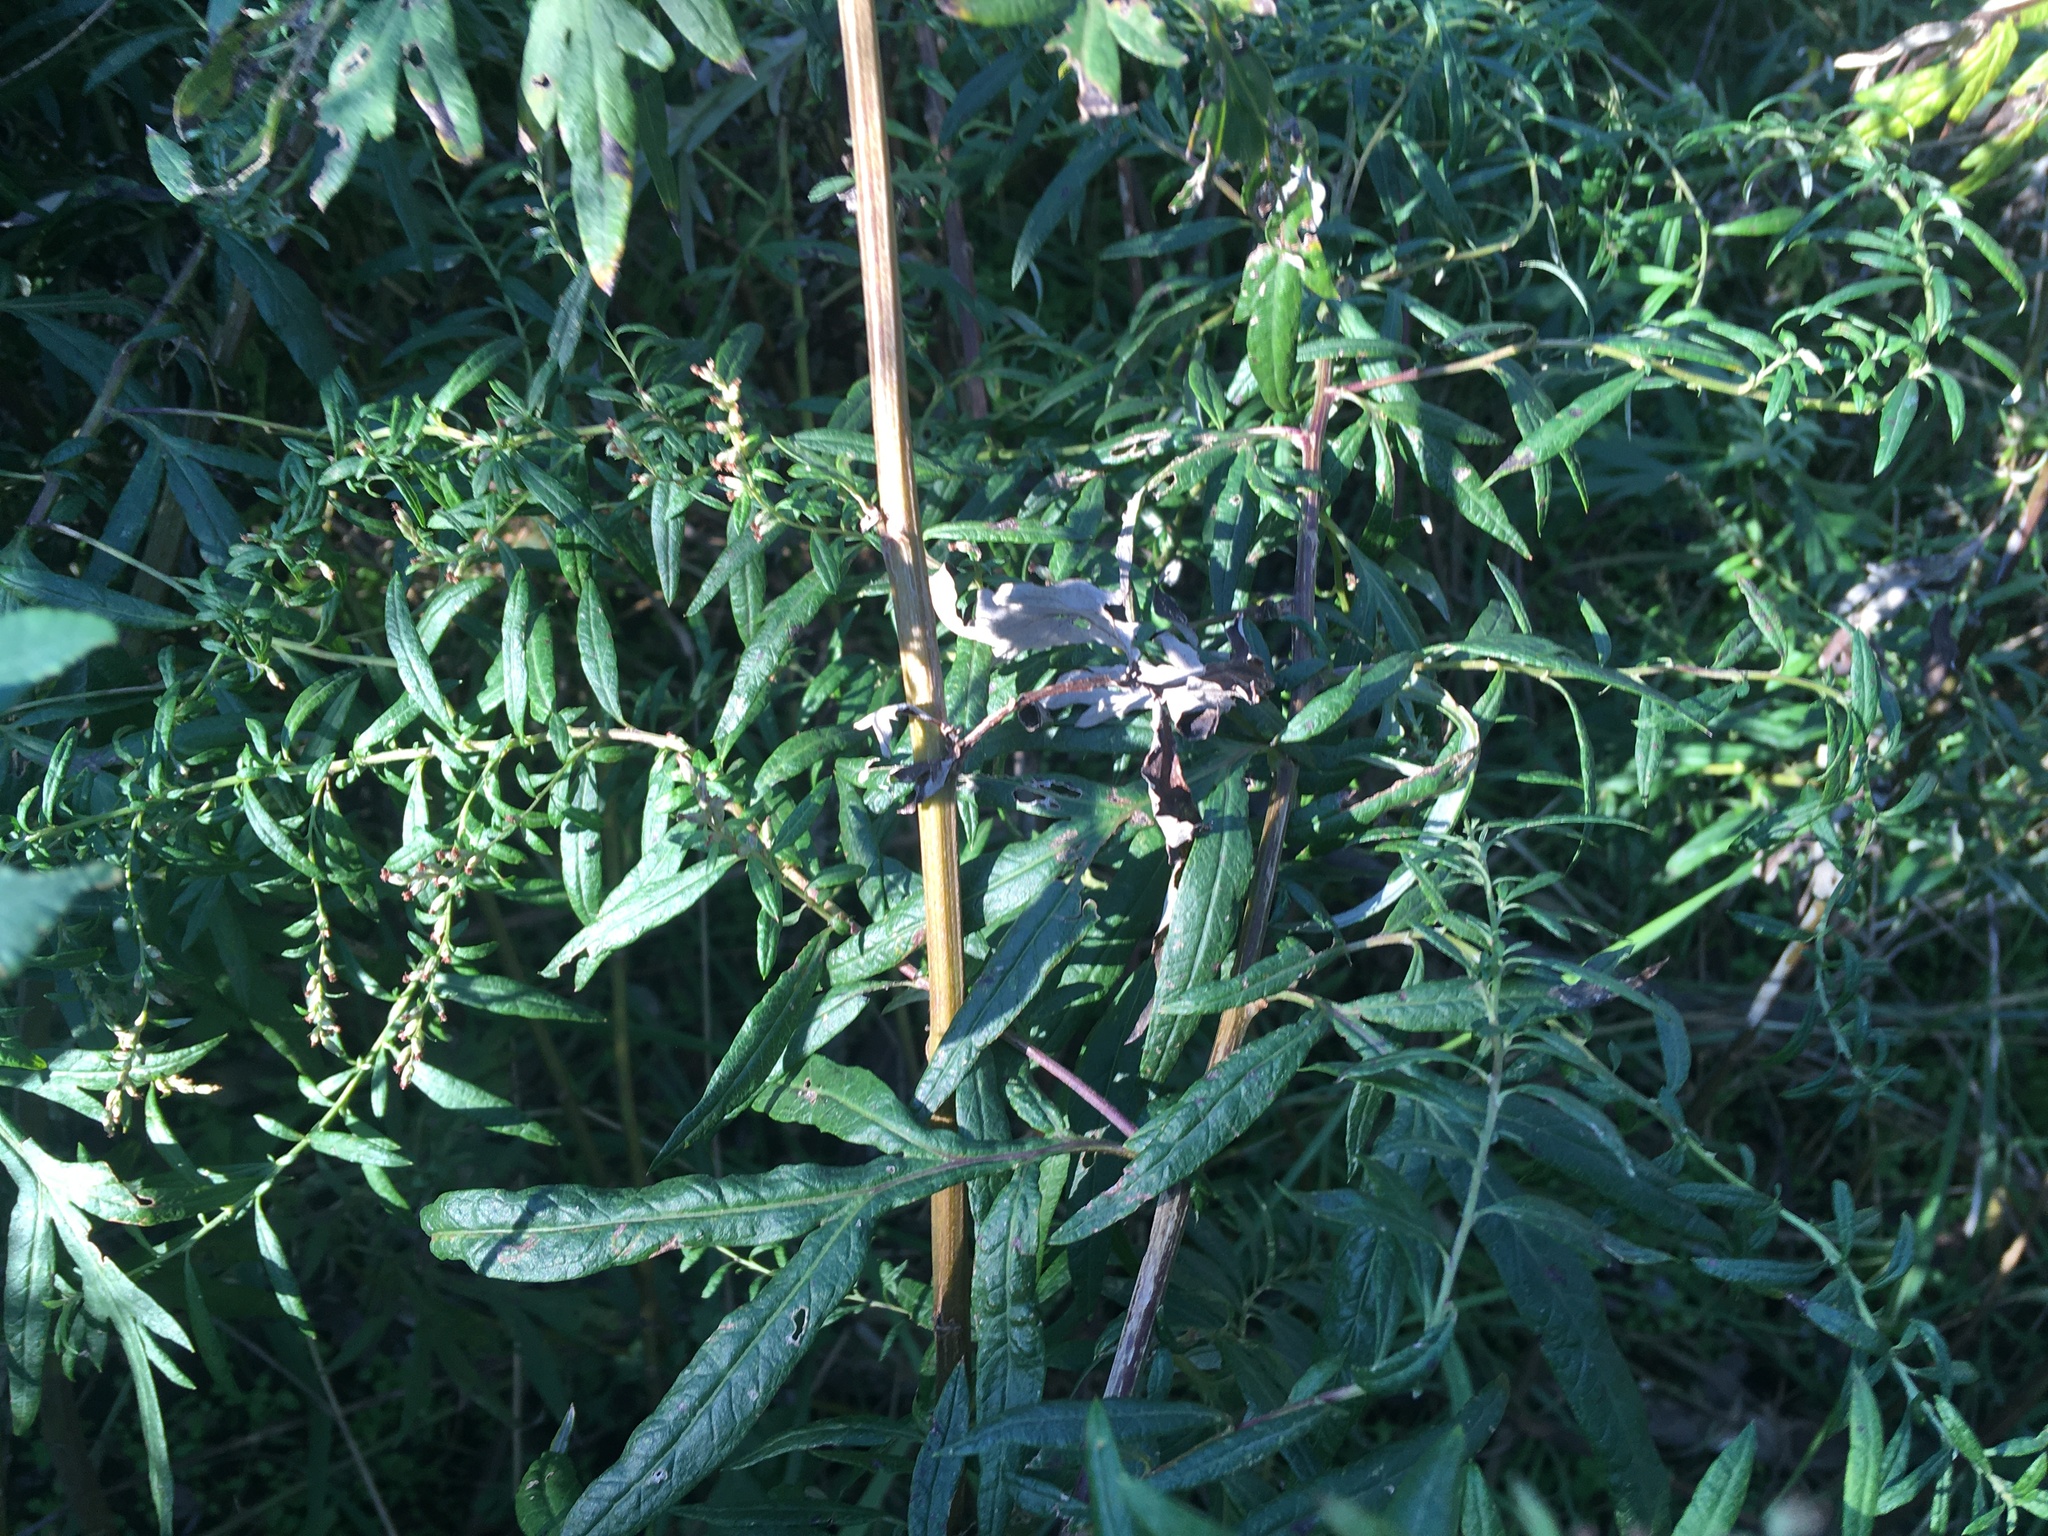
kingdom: Plantae
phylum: Tracheophyta
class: Magnoliopsida
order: Asterales
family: Asteraceae
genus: Artemisia
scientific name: Artemisia vulgaris
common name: Mugwort
